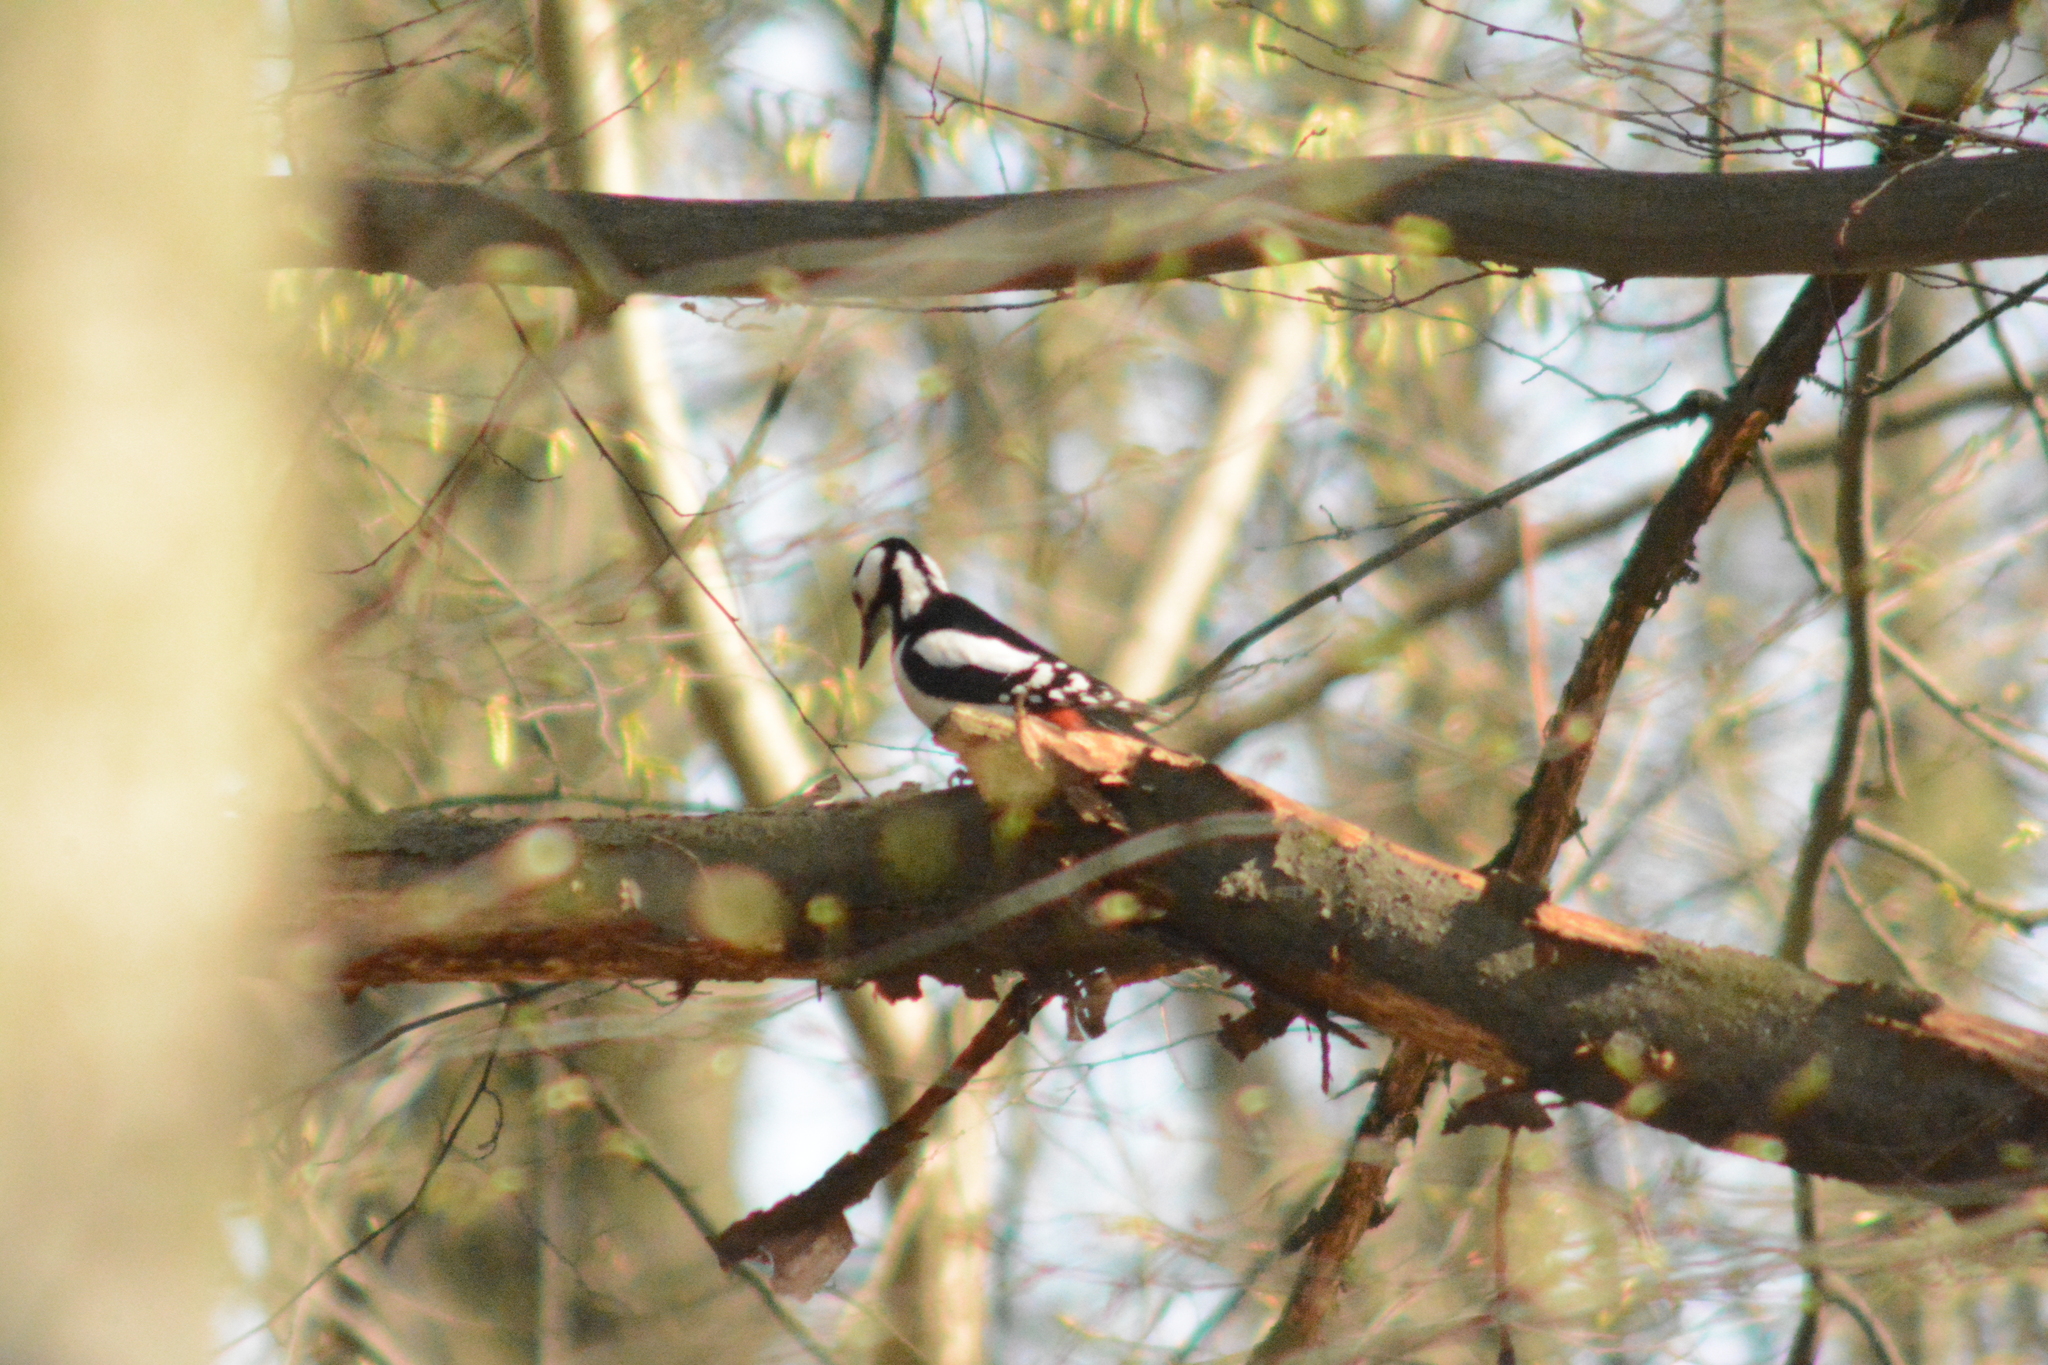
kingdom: Animalia
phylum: Chordata
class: Aves
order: Piciformes
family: Picidae
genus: Dendrocopos
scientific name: Dendrocopos major
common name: Great spotted woodpecker
